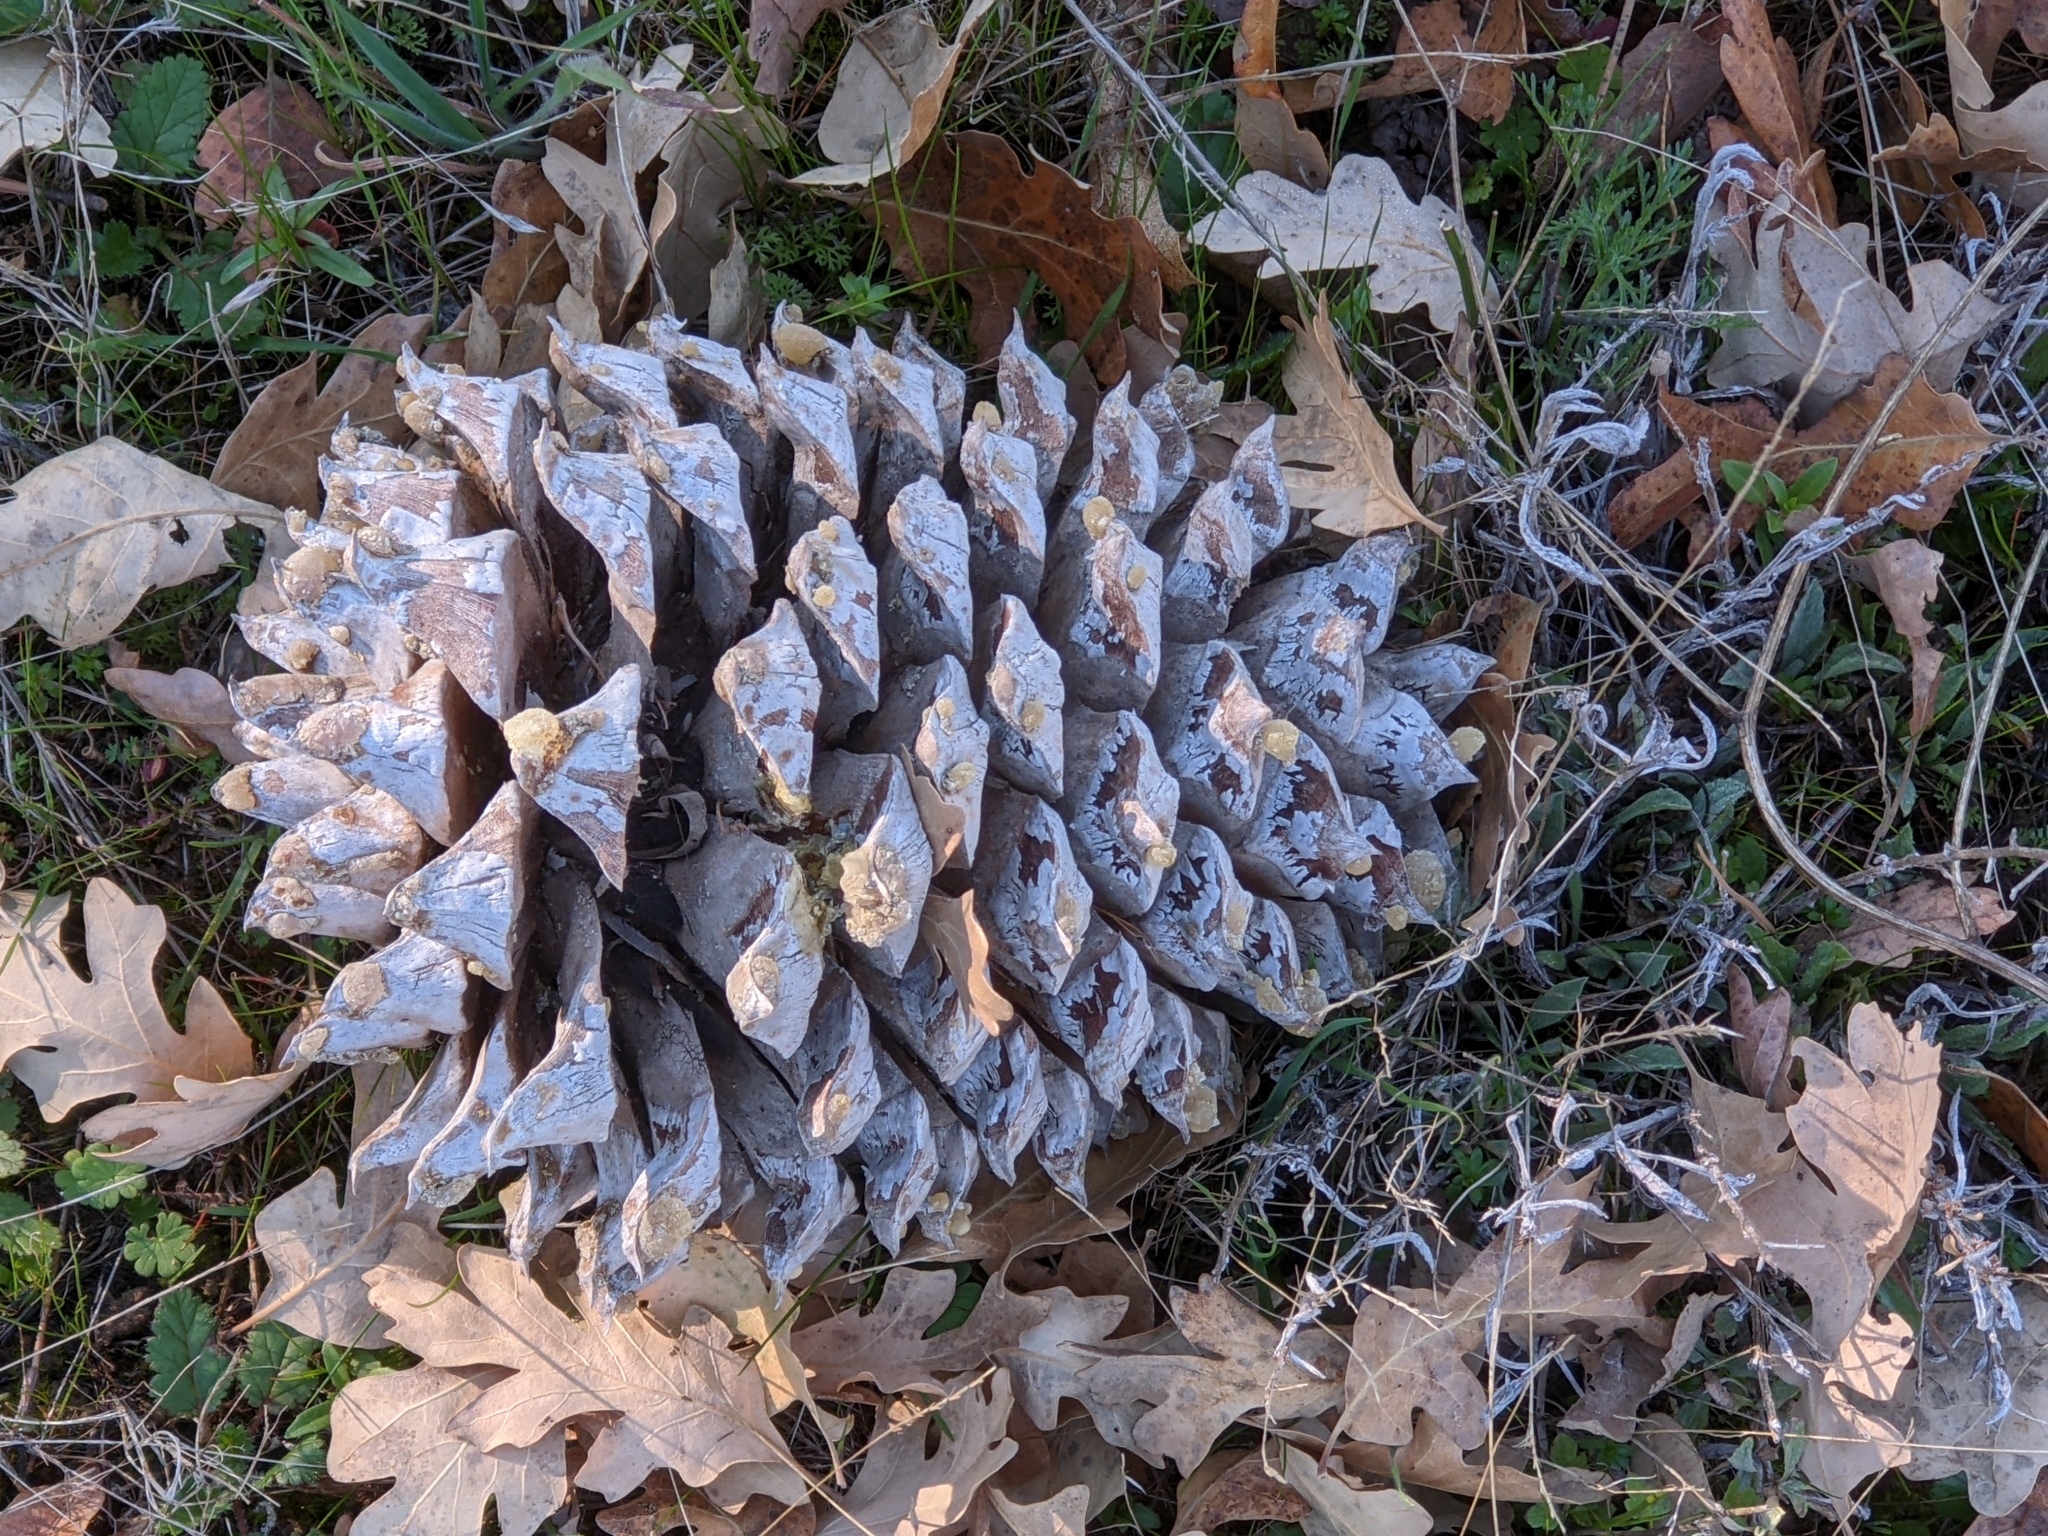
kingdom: Plantae
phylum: Tracheophyta
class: Pinopsida
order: Pinales
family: Pinaceae
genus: Pinus
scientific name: Pinus sabiniana
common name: Bull pine
